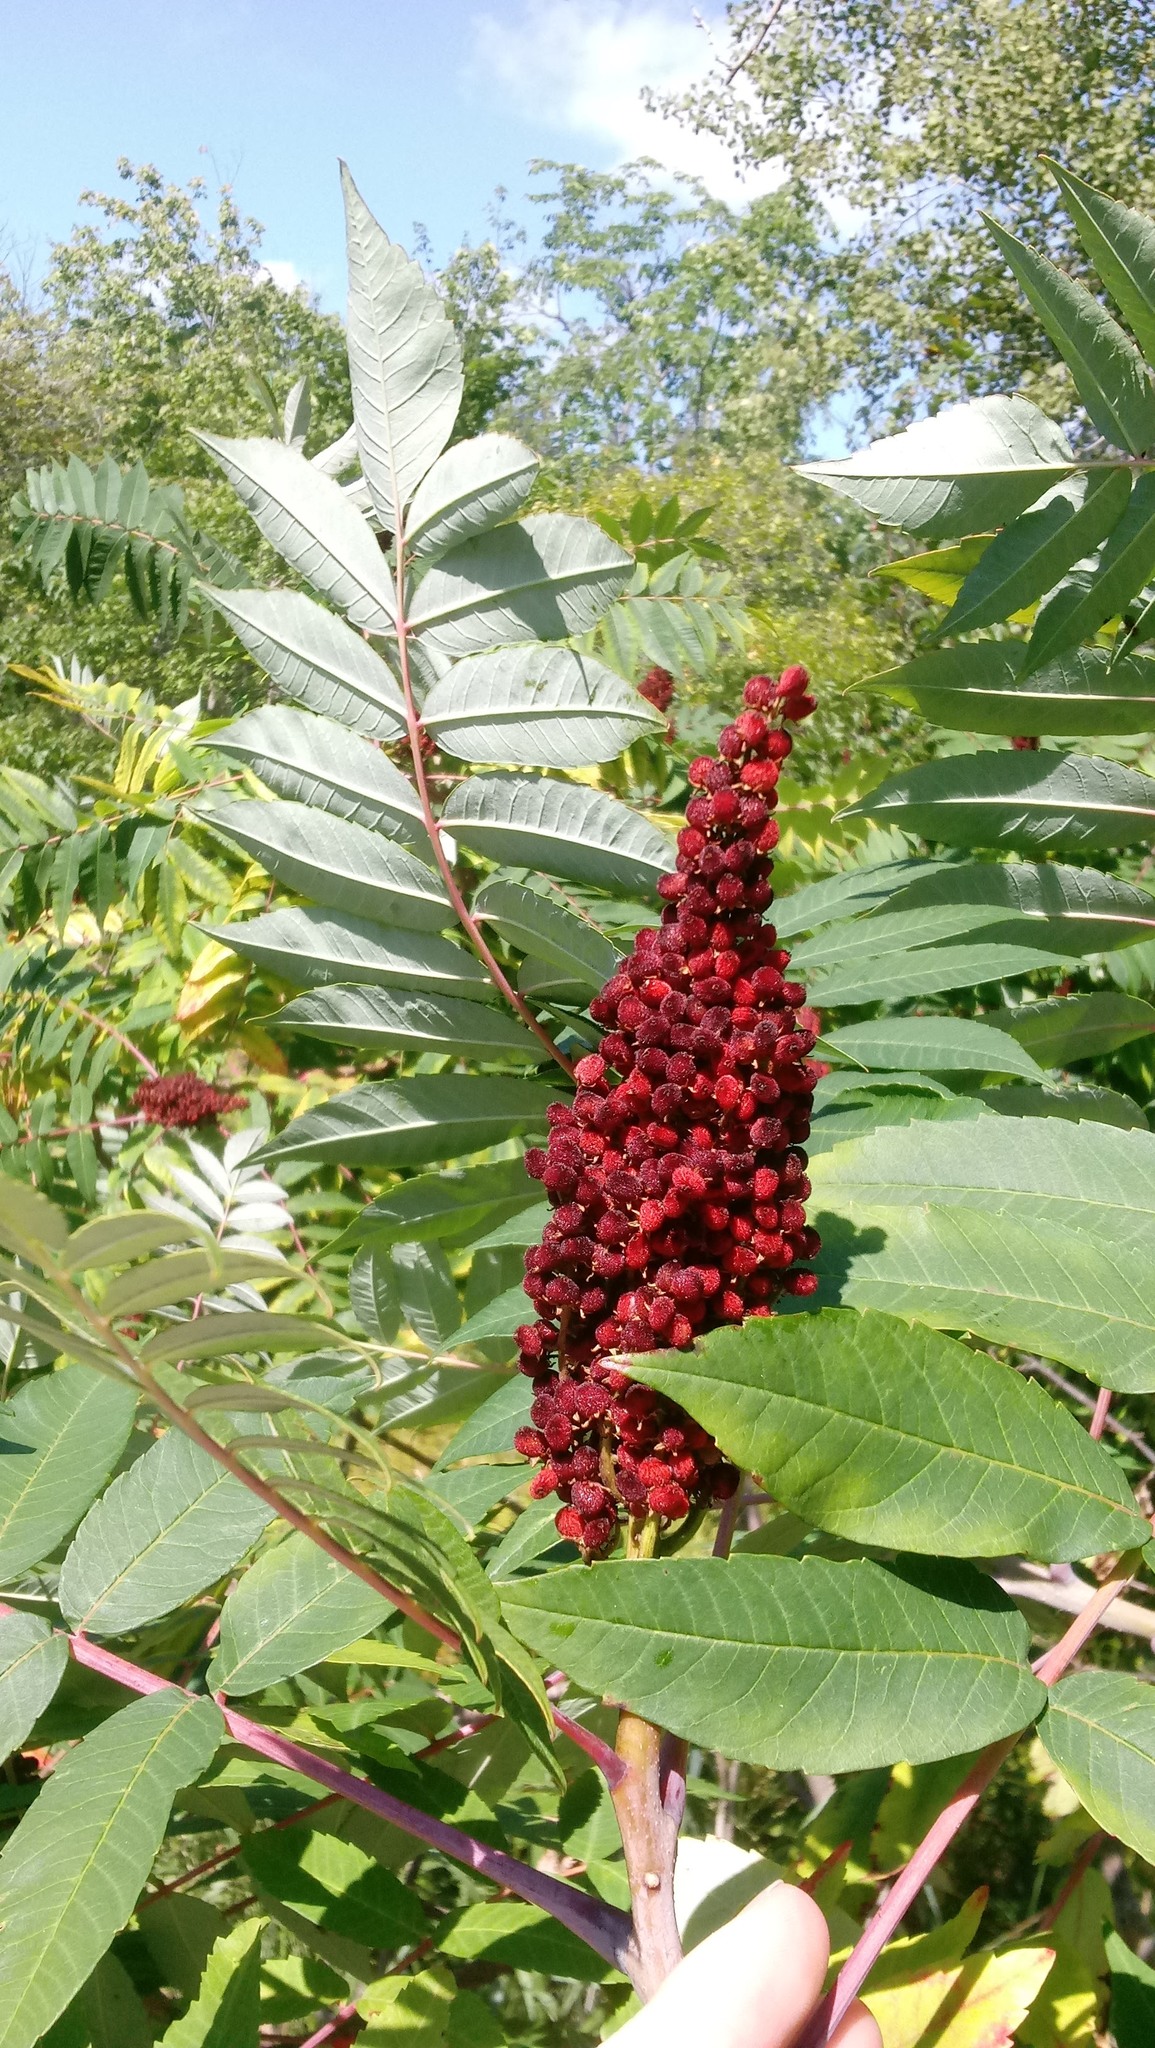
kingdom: Plantae
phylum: Tracheophyta
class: Magnoliopsida
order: Sapindales
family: Anacardiaceae
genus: Rhus
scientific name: Rhus glabra
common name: Scarlet sumac
